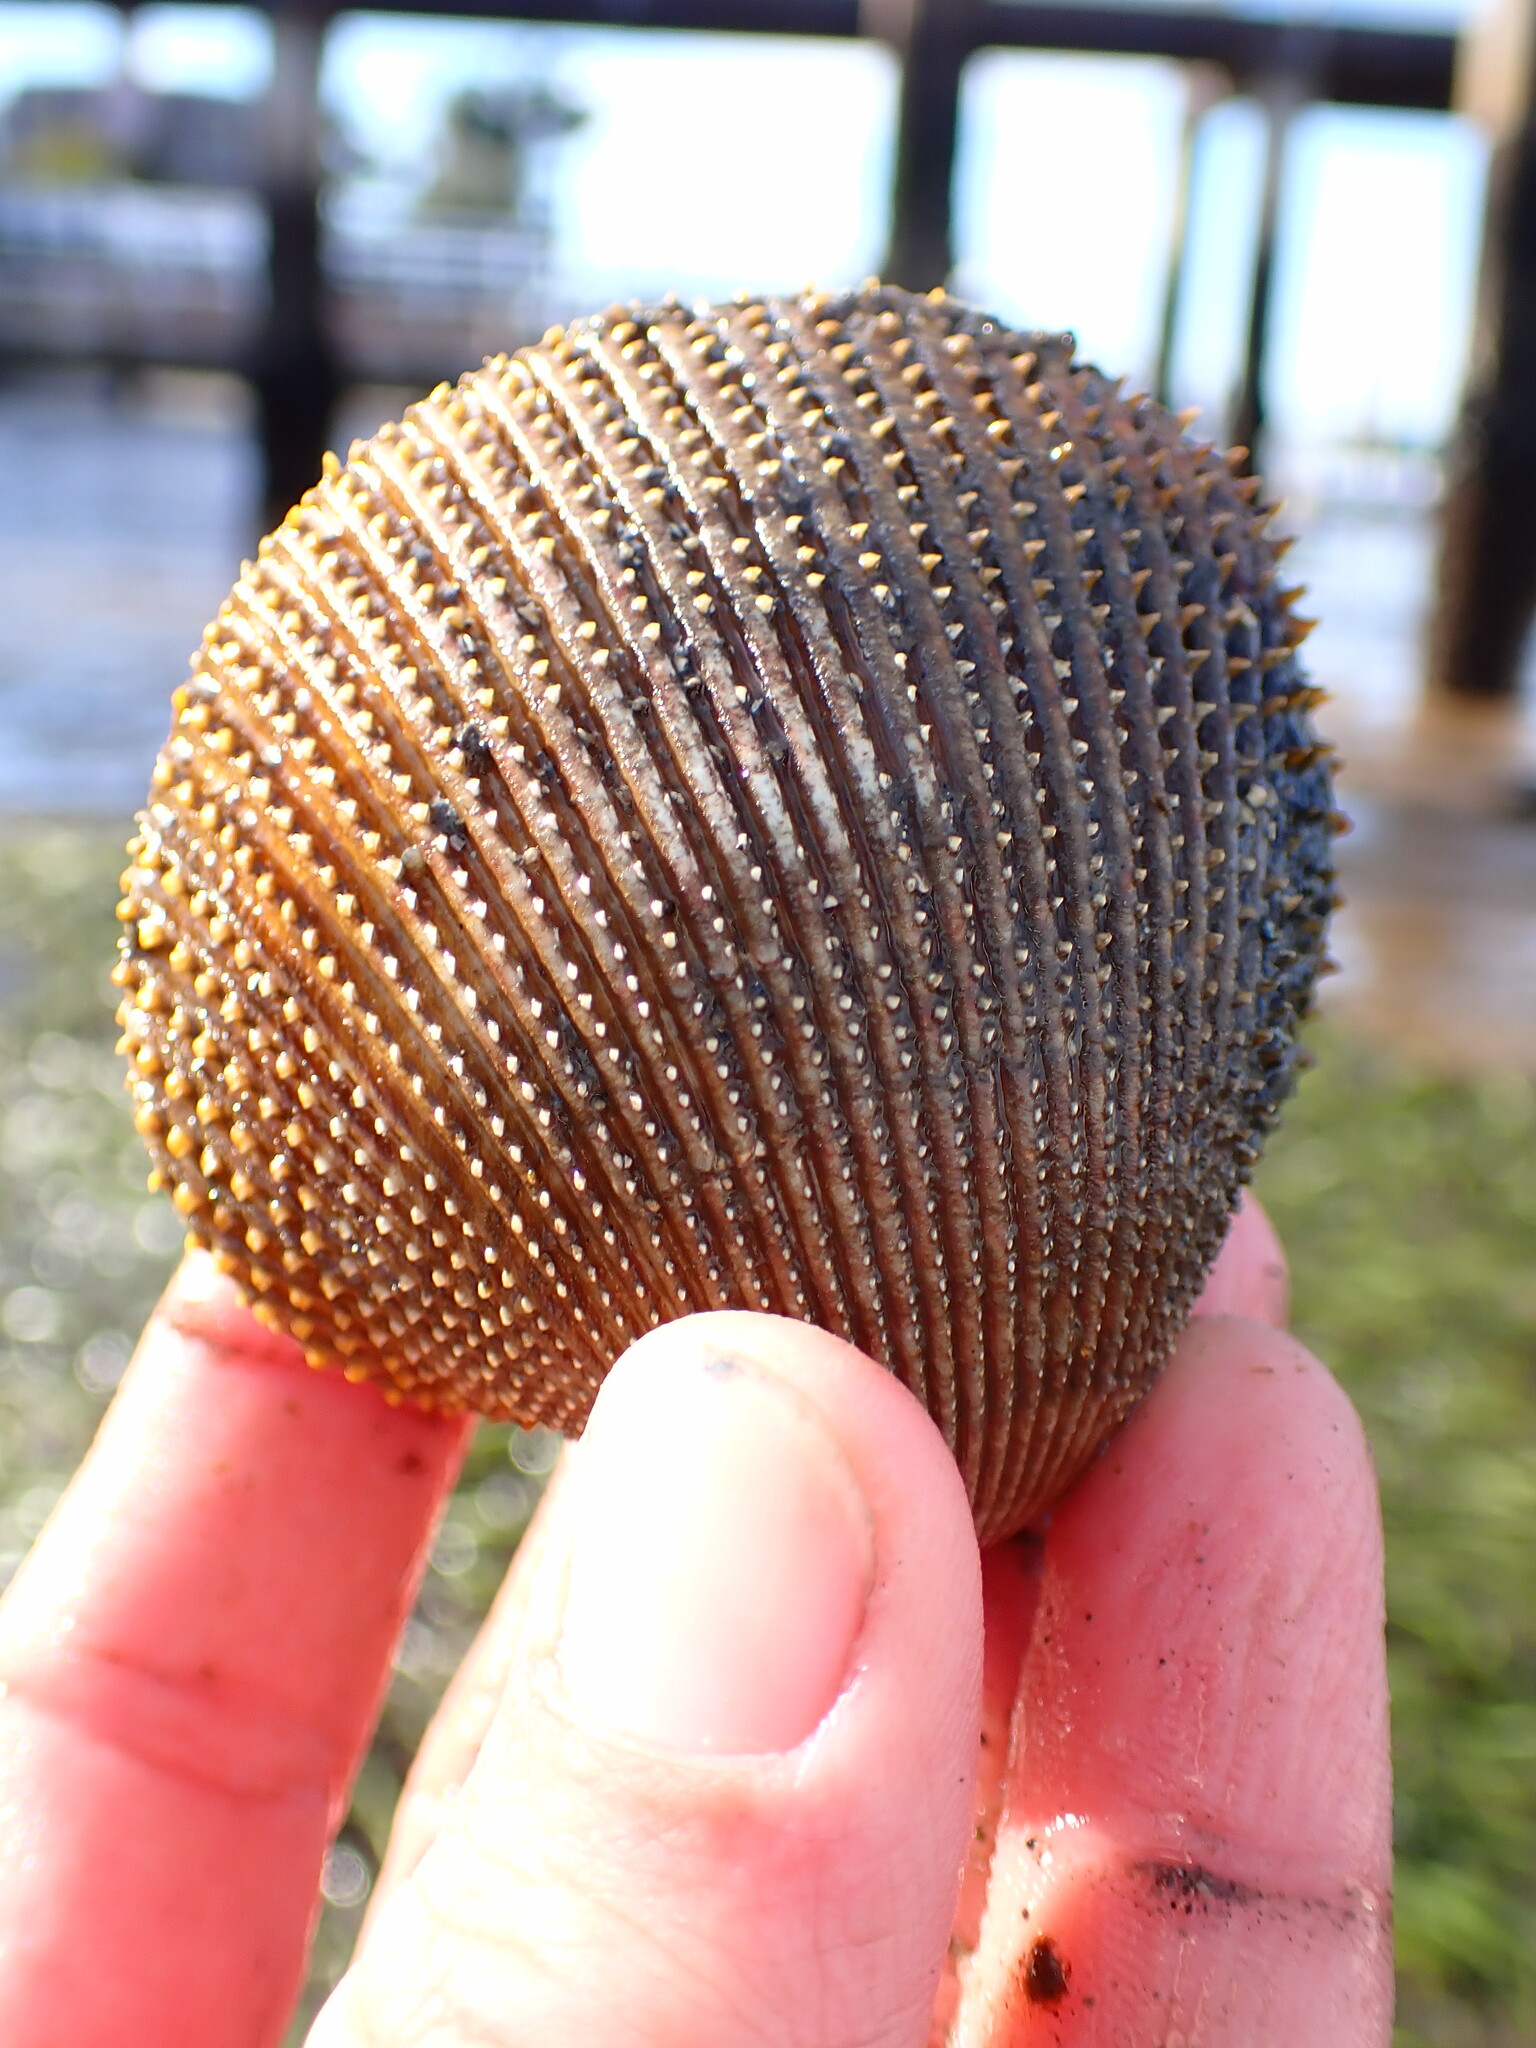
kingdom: Animalia
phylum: Mollusca
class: Bivalvia
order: Cardiida
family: Cardiidae
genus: Dallocardia
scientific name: Dallocardia quadragenaria
